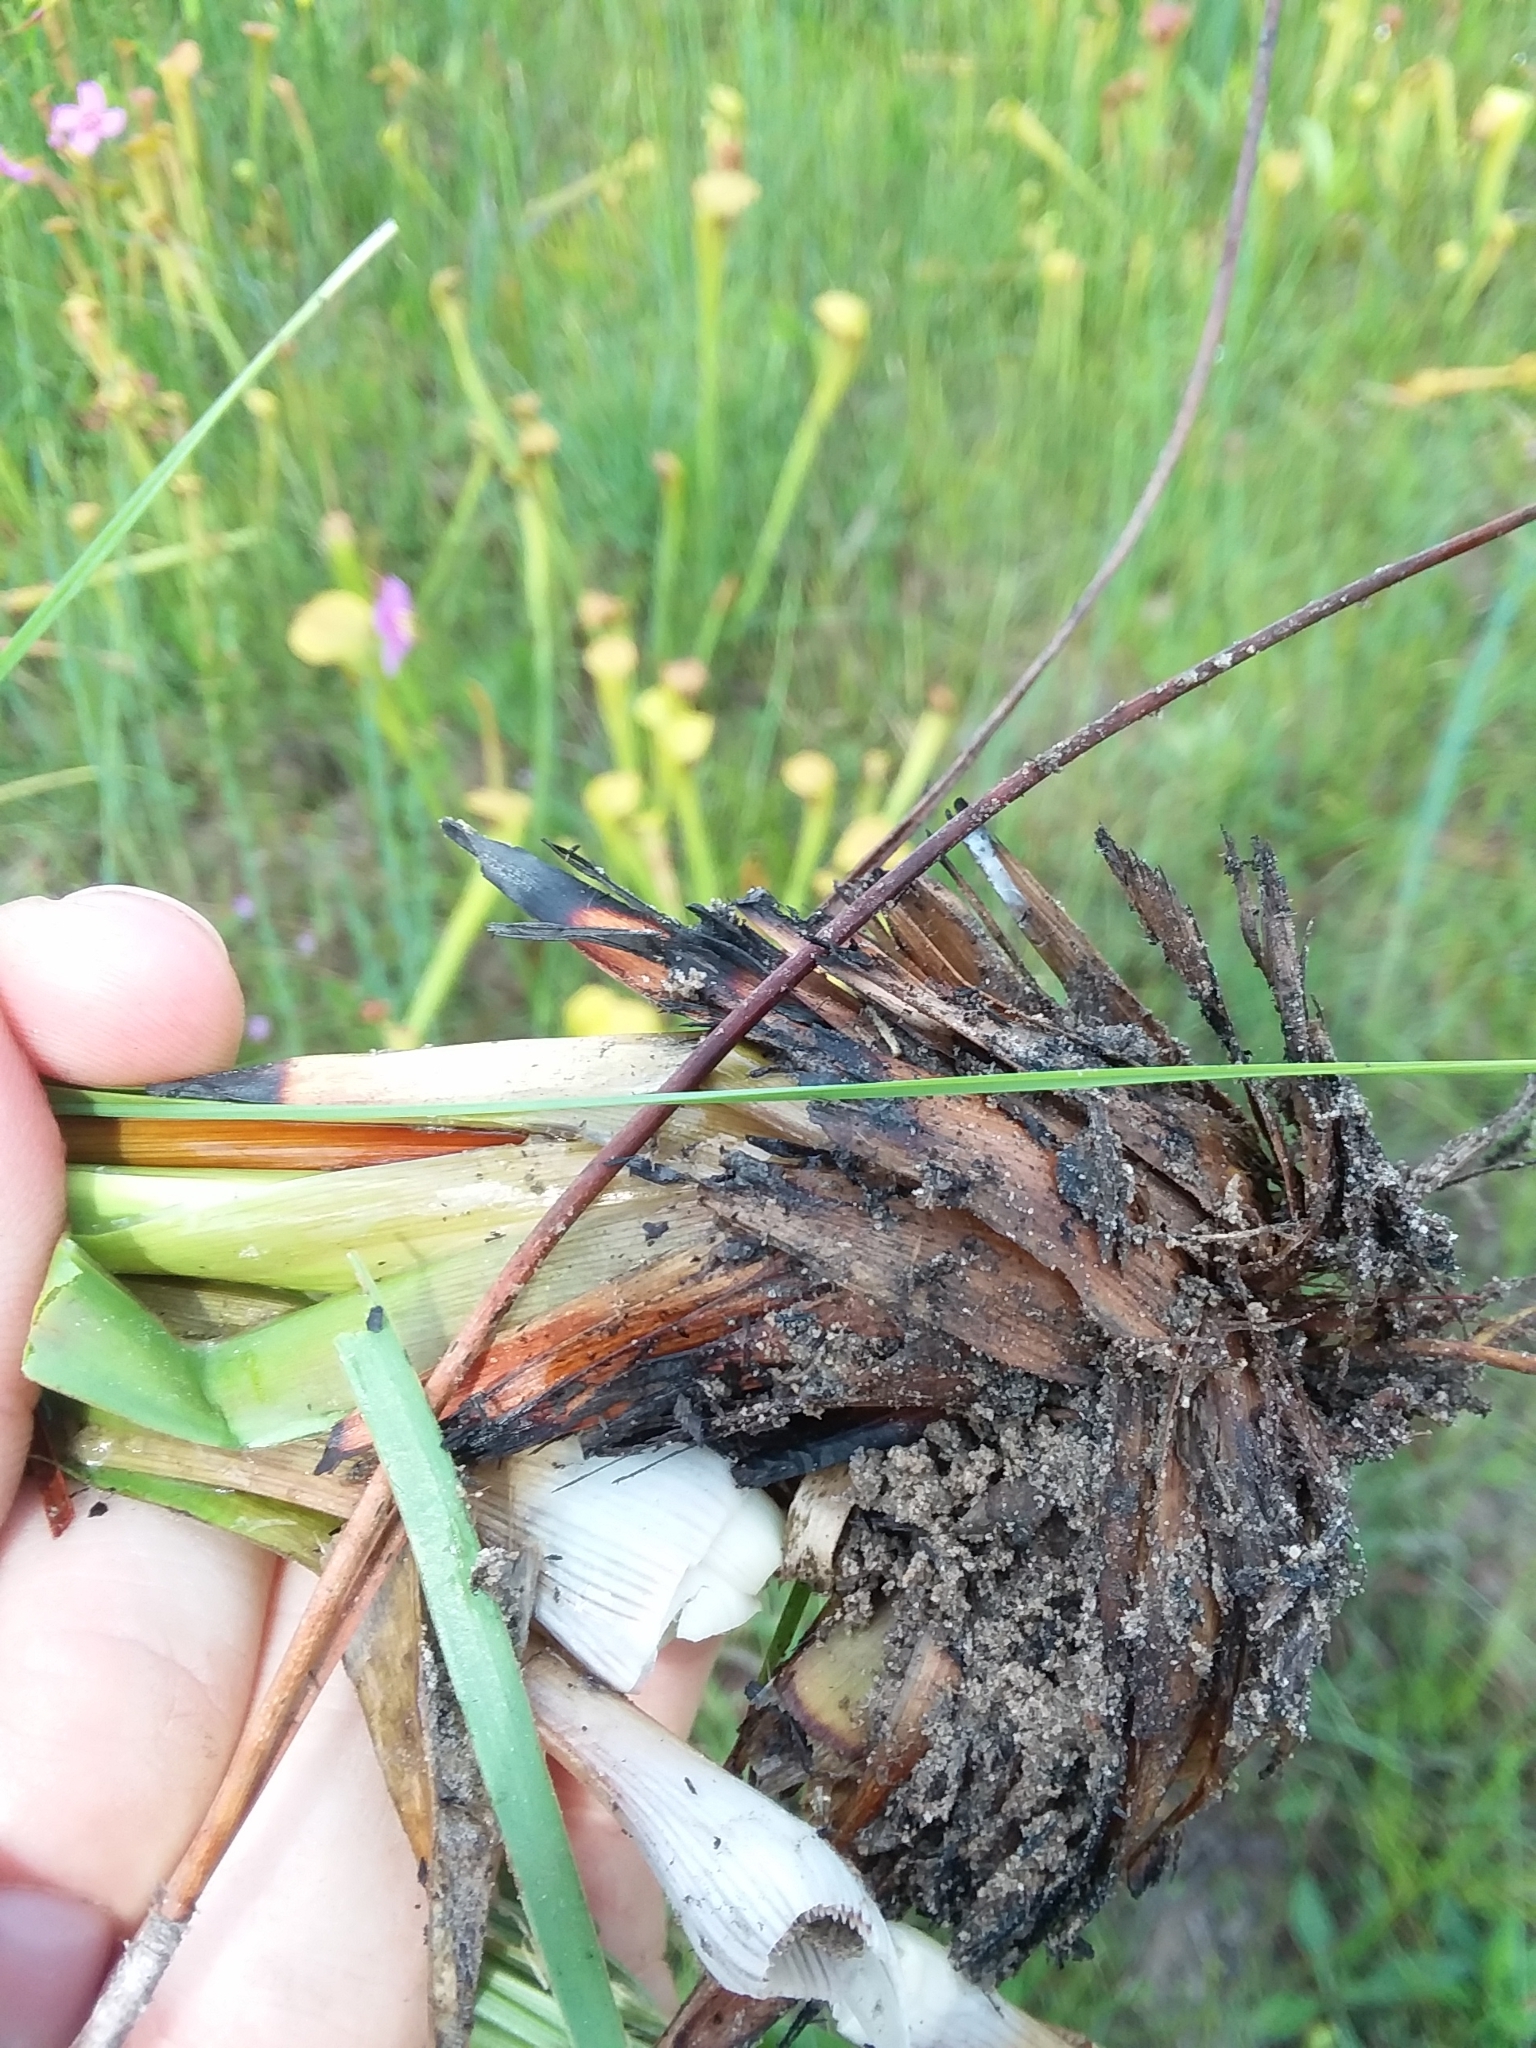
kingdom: Plantae
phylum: Tracheophyta
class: Liliopsida
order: Poales
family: Xyridaceae
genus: Xyris
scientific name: Xyris ambigua
